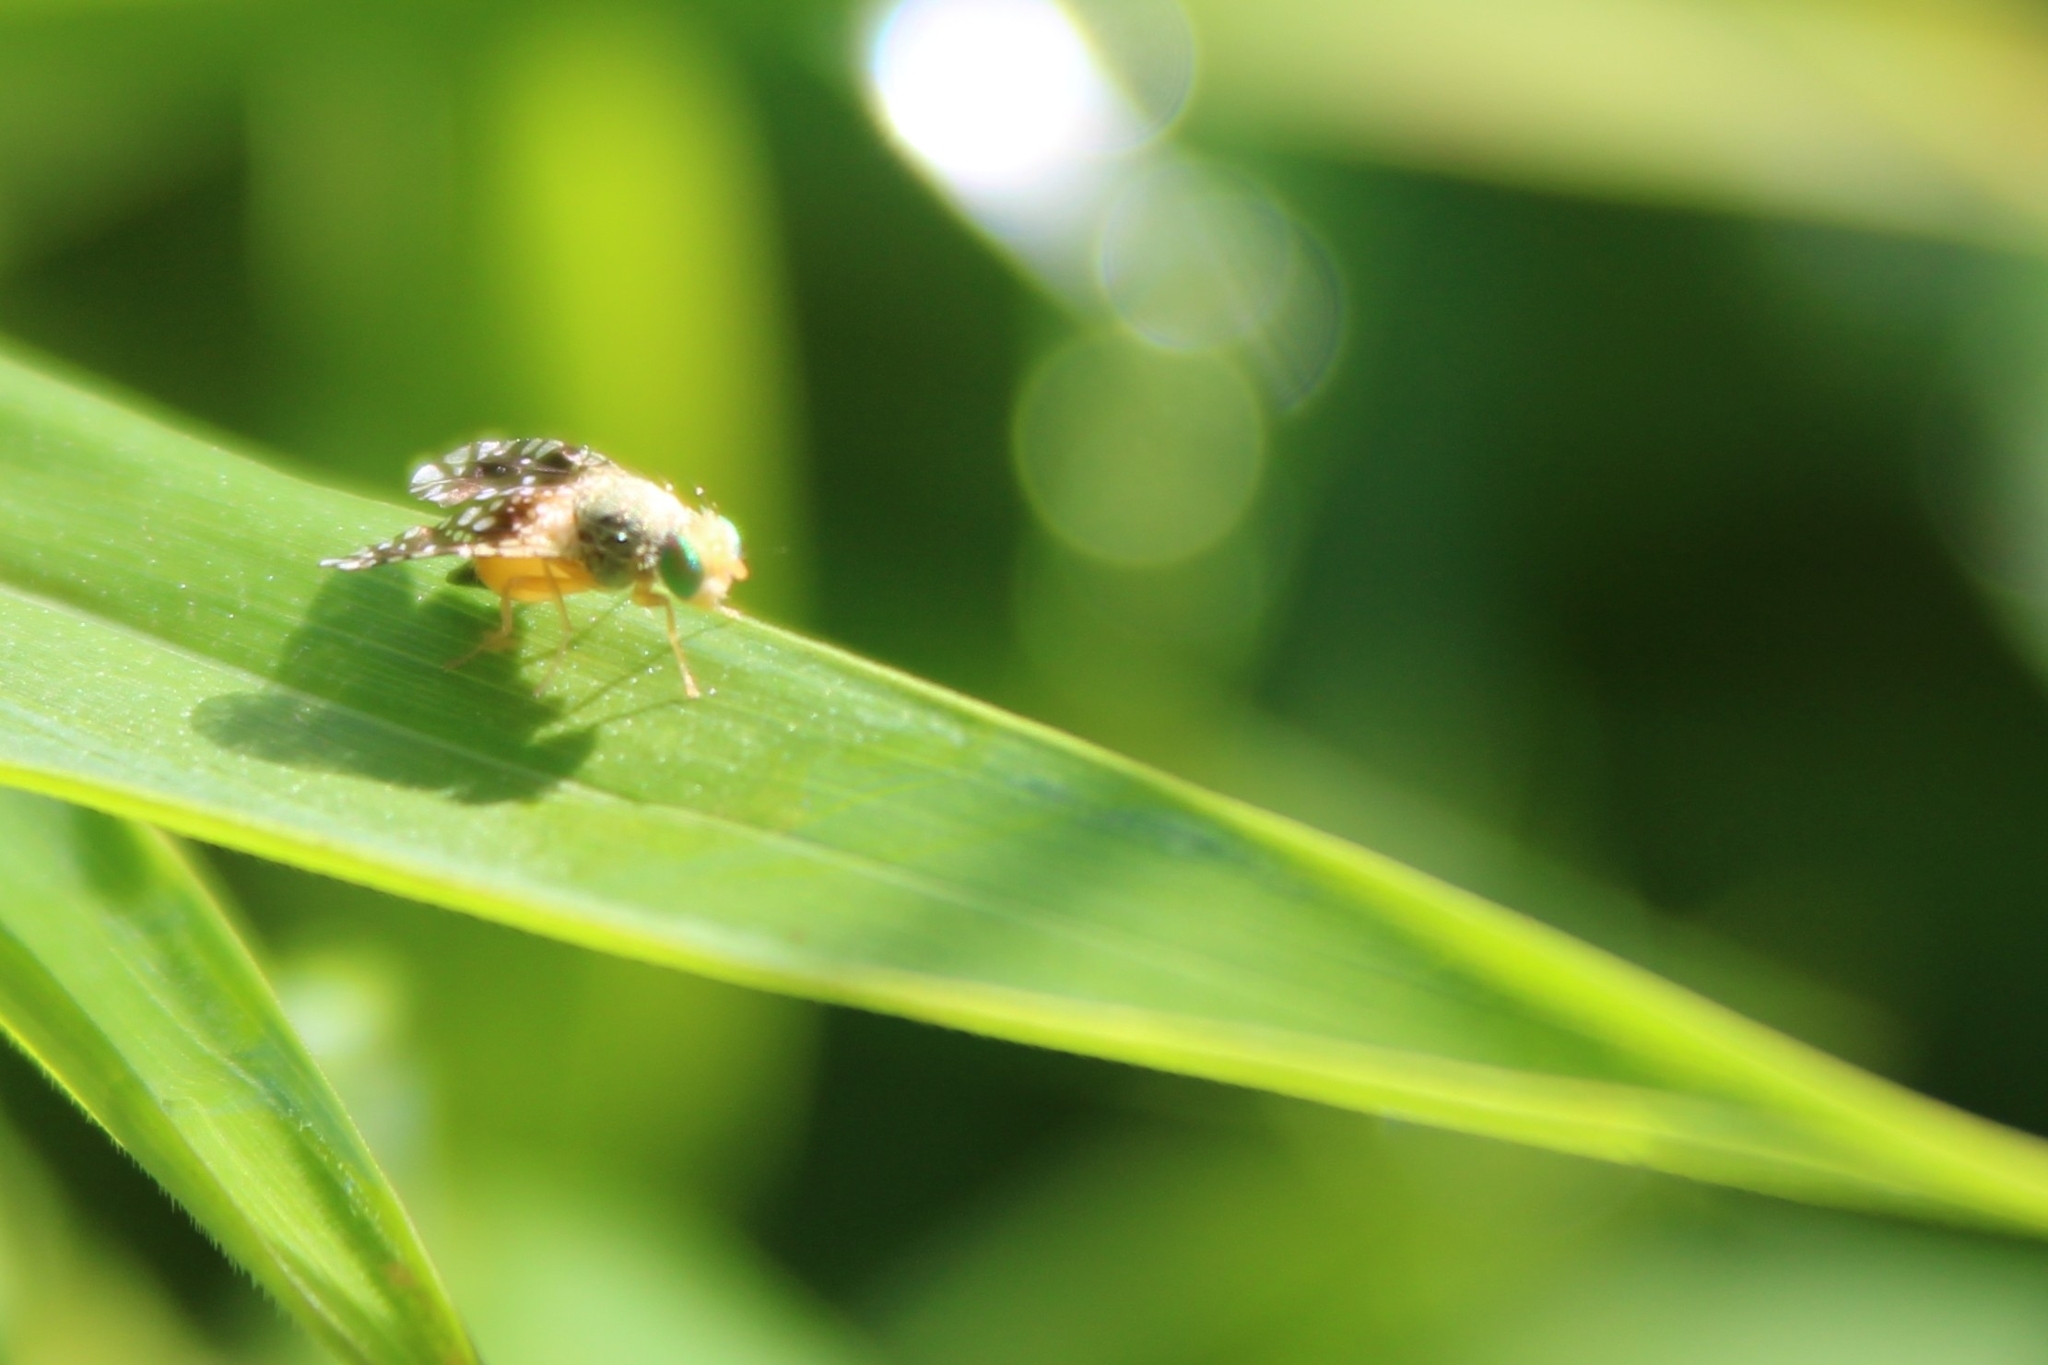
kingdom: Animalia
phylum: Arthropoda
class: Insecta
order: Diptera
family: Tephritidae
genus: Euaresta
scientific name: Euaresta bella
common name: Common ragweed fruit fly
